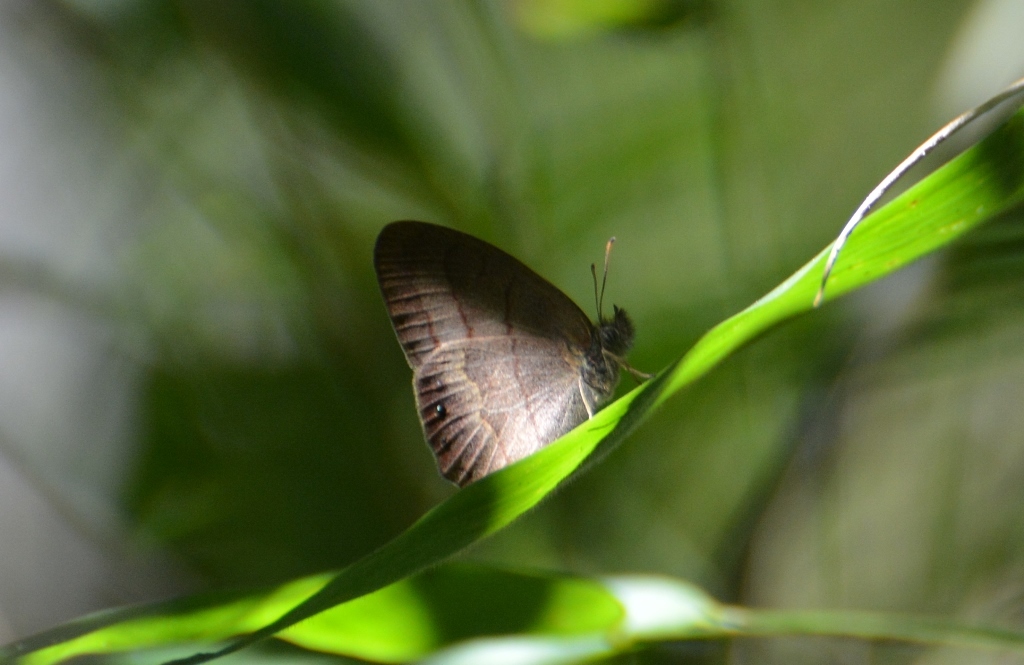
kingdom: Animalia
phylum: Arthropoda
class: Insecta
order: Lepidoptera
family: Nymphalidae
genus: Euptychia
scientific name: Euptychia
